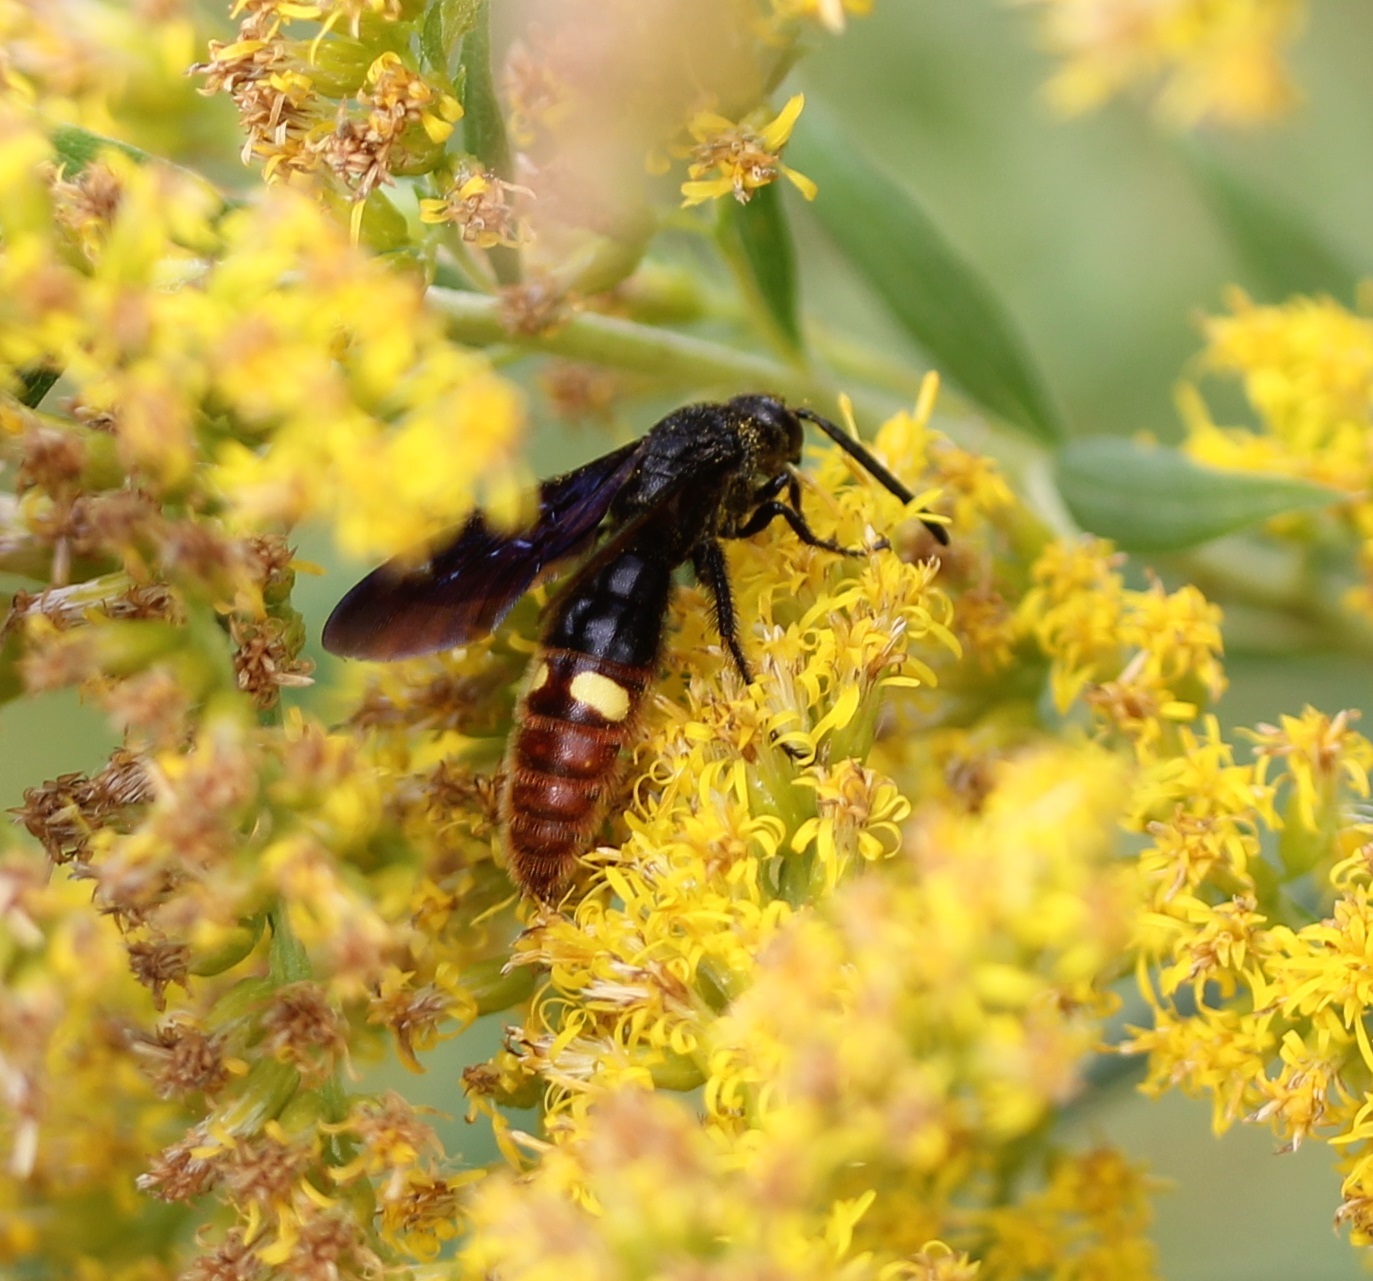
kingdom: Animalia
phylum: Arthropoda
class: Insecta
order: Hymenoptera
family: Scoliidae
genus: Scolia
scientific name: Scolia dubia
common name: Blue-winged scoliid wasp
